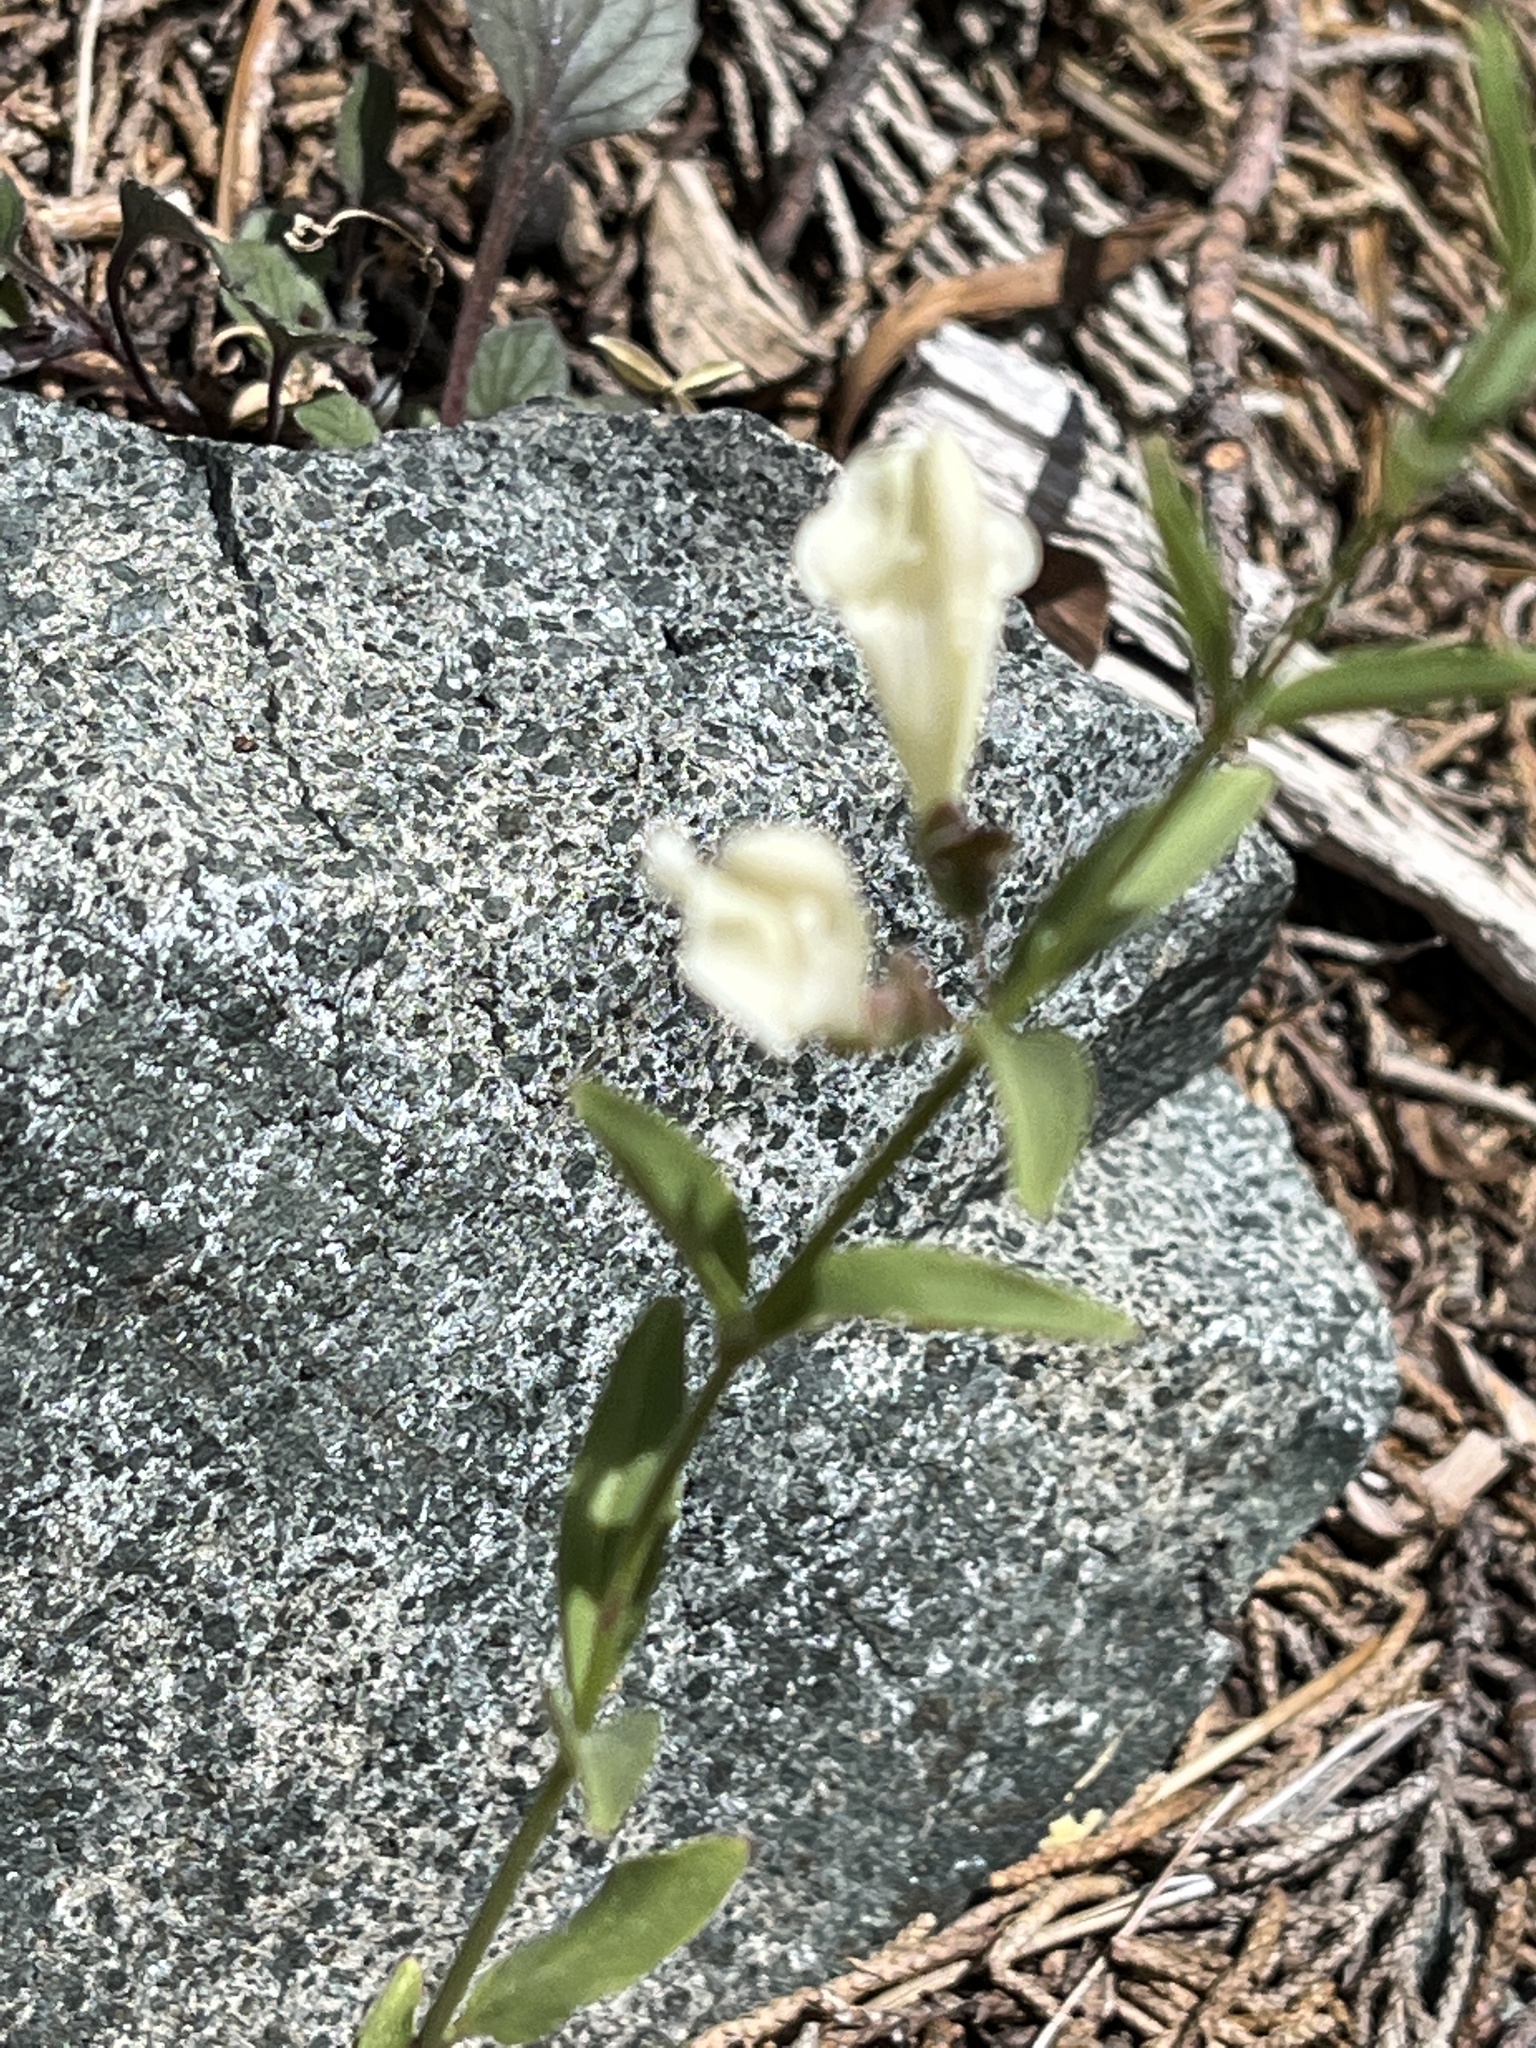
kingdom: Plantae
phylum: Tracheophyta
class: Magnoliopsida
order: Lamiales
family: Lamiaceae
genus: Scutellaria
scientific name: Scutellaria californica
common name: California scullcap
